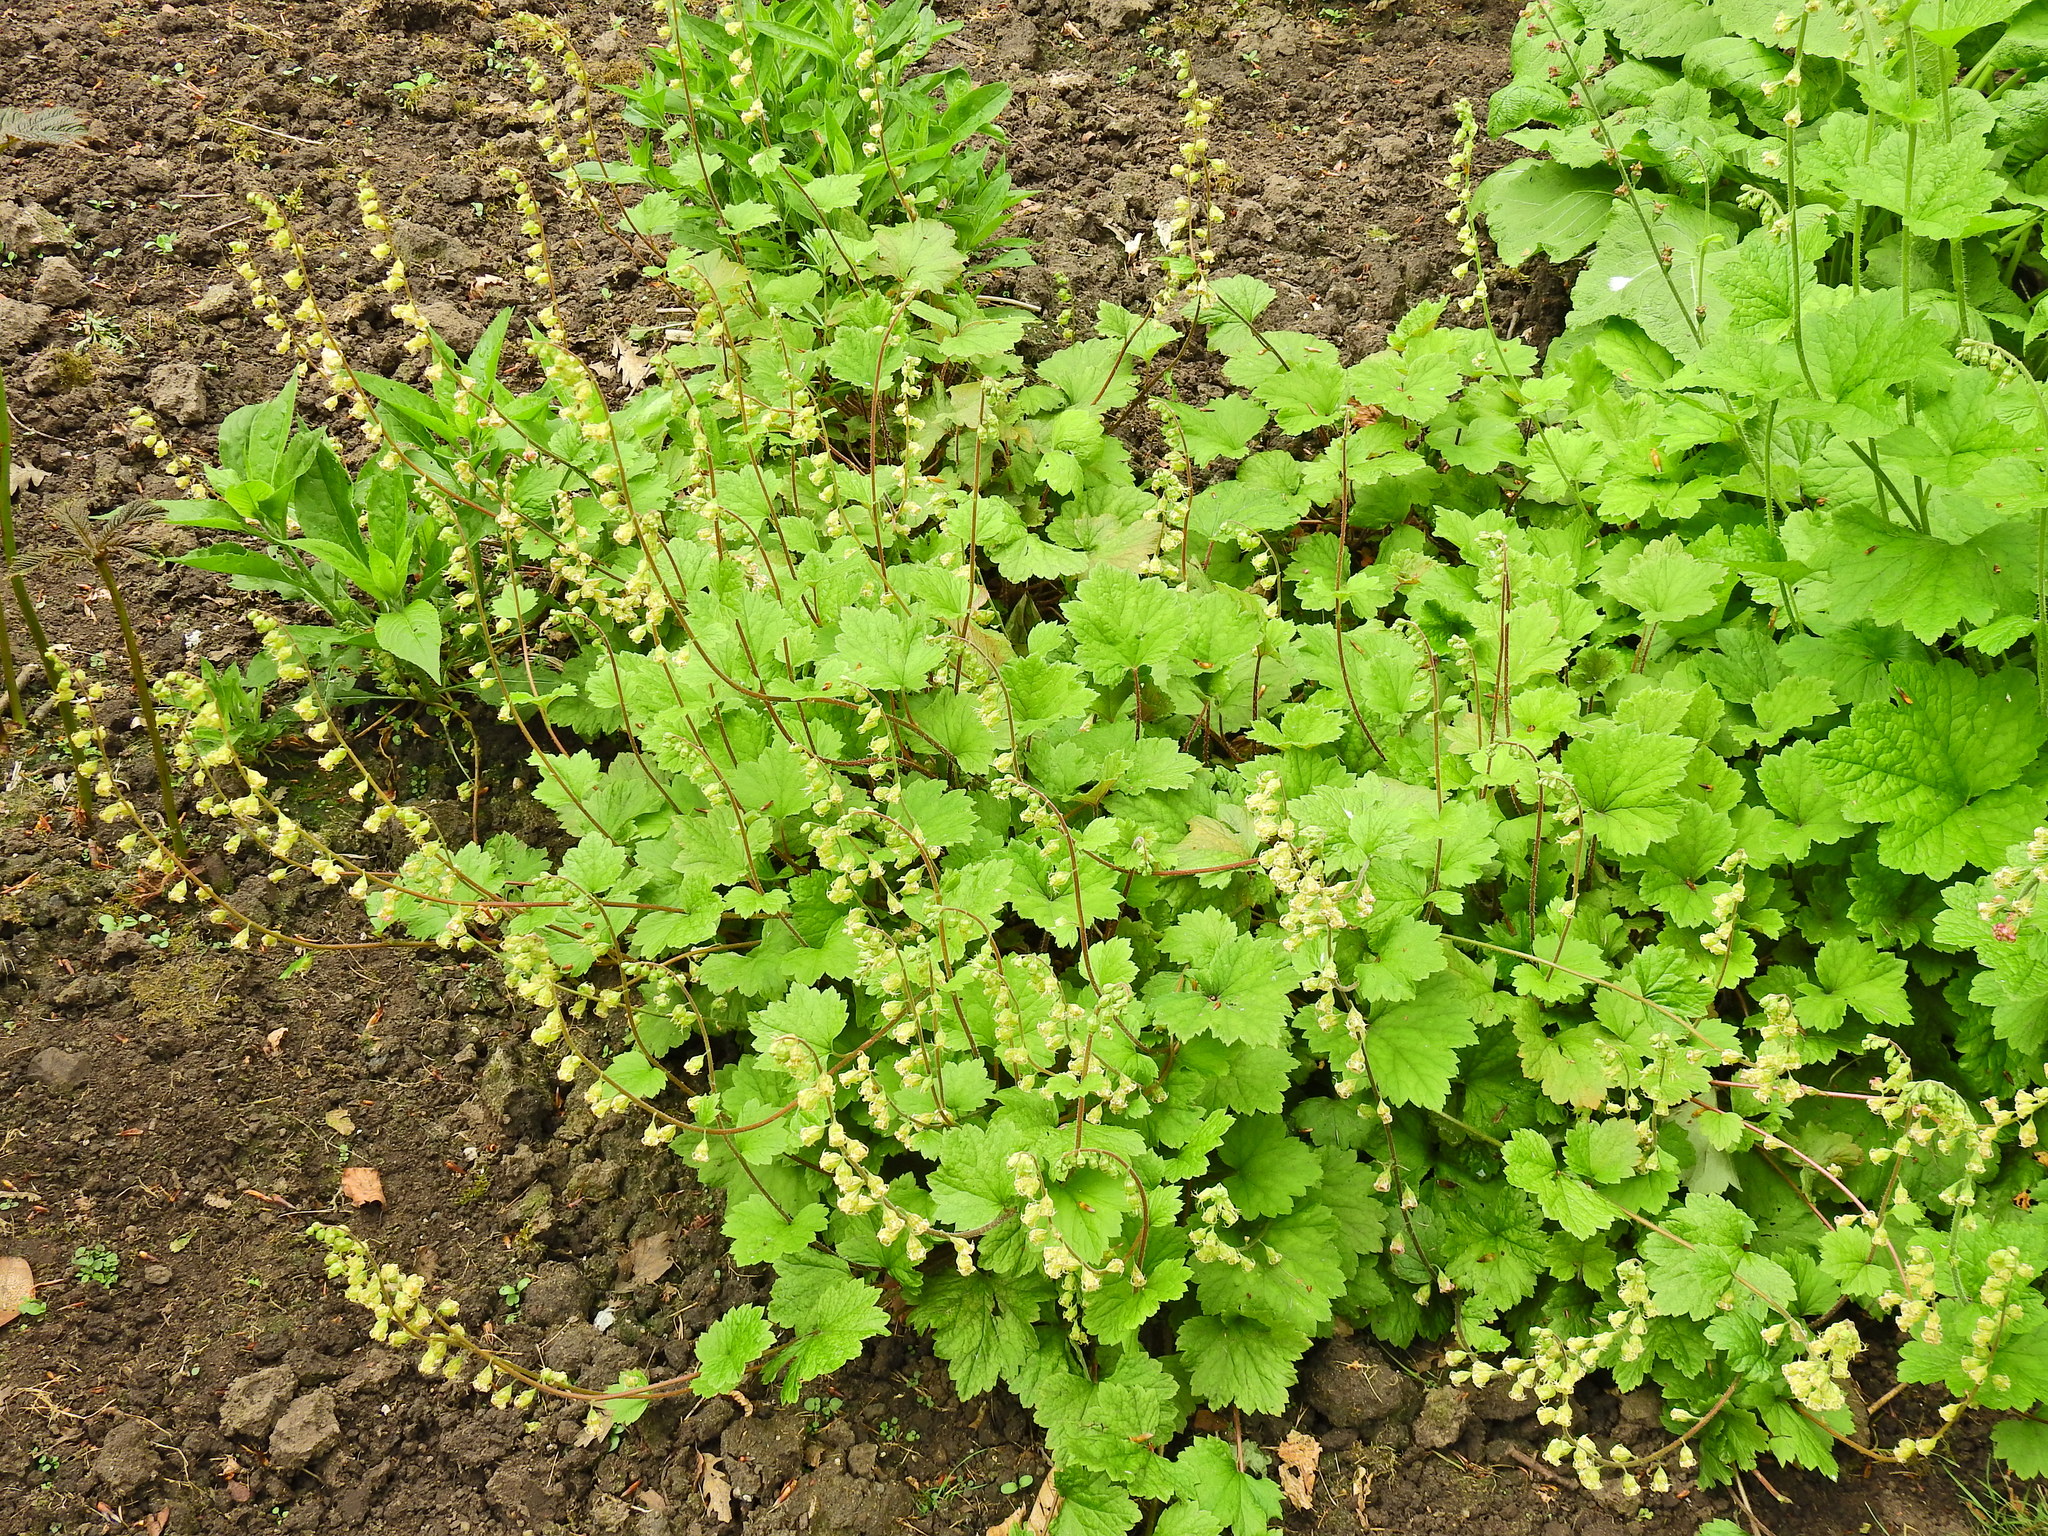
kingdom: Plantae
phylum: Tracheophyta
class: Magnoliopsida
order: Saxifragales
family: Saxifragaceae
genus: Tellima
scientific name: Tellima grandiflora
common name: Fringecups
